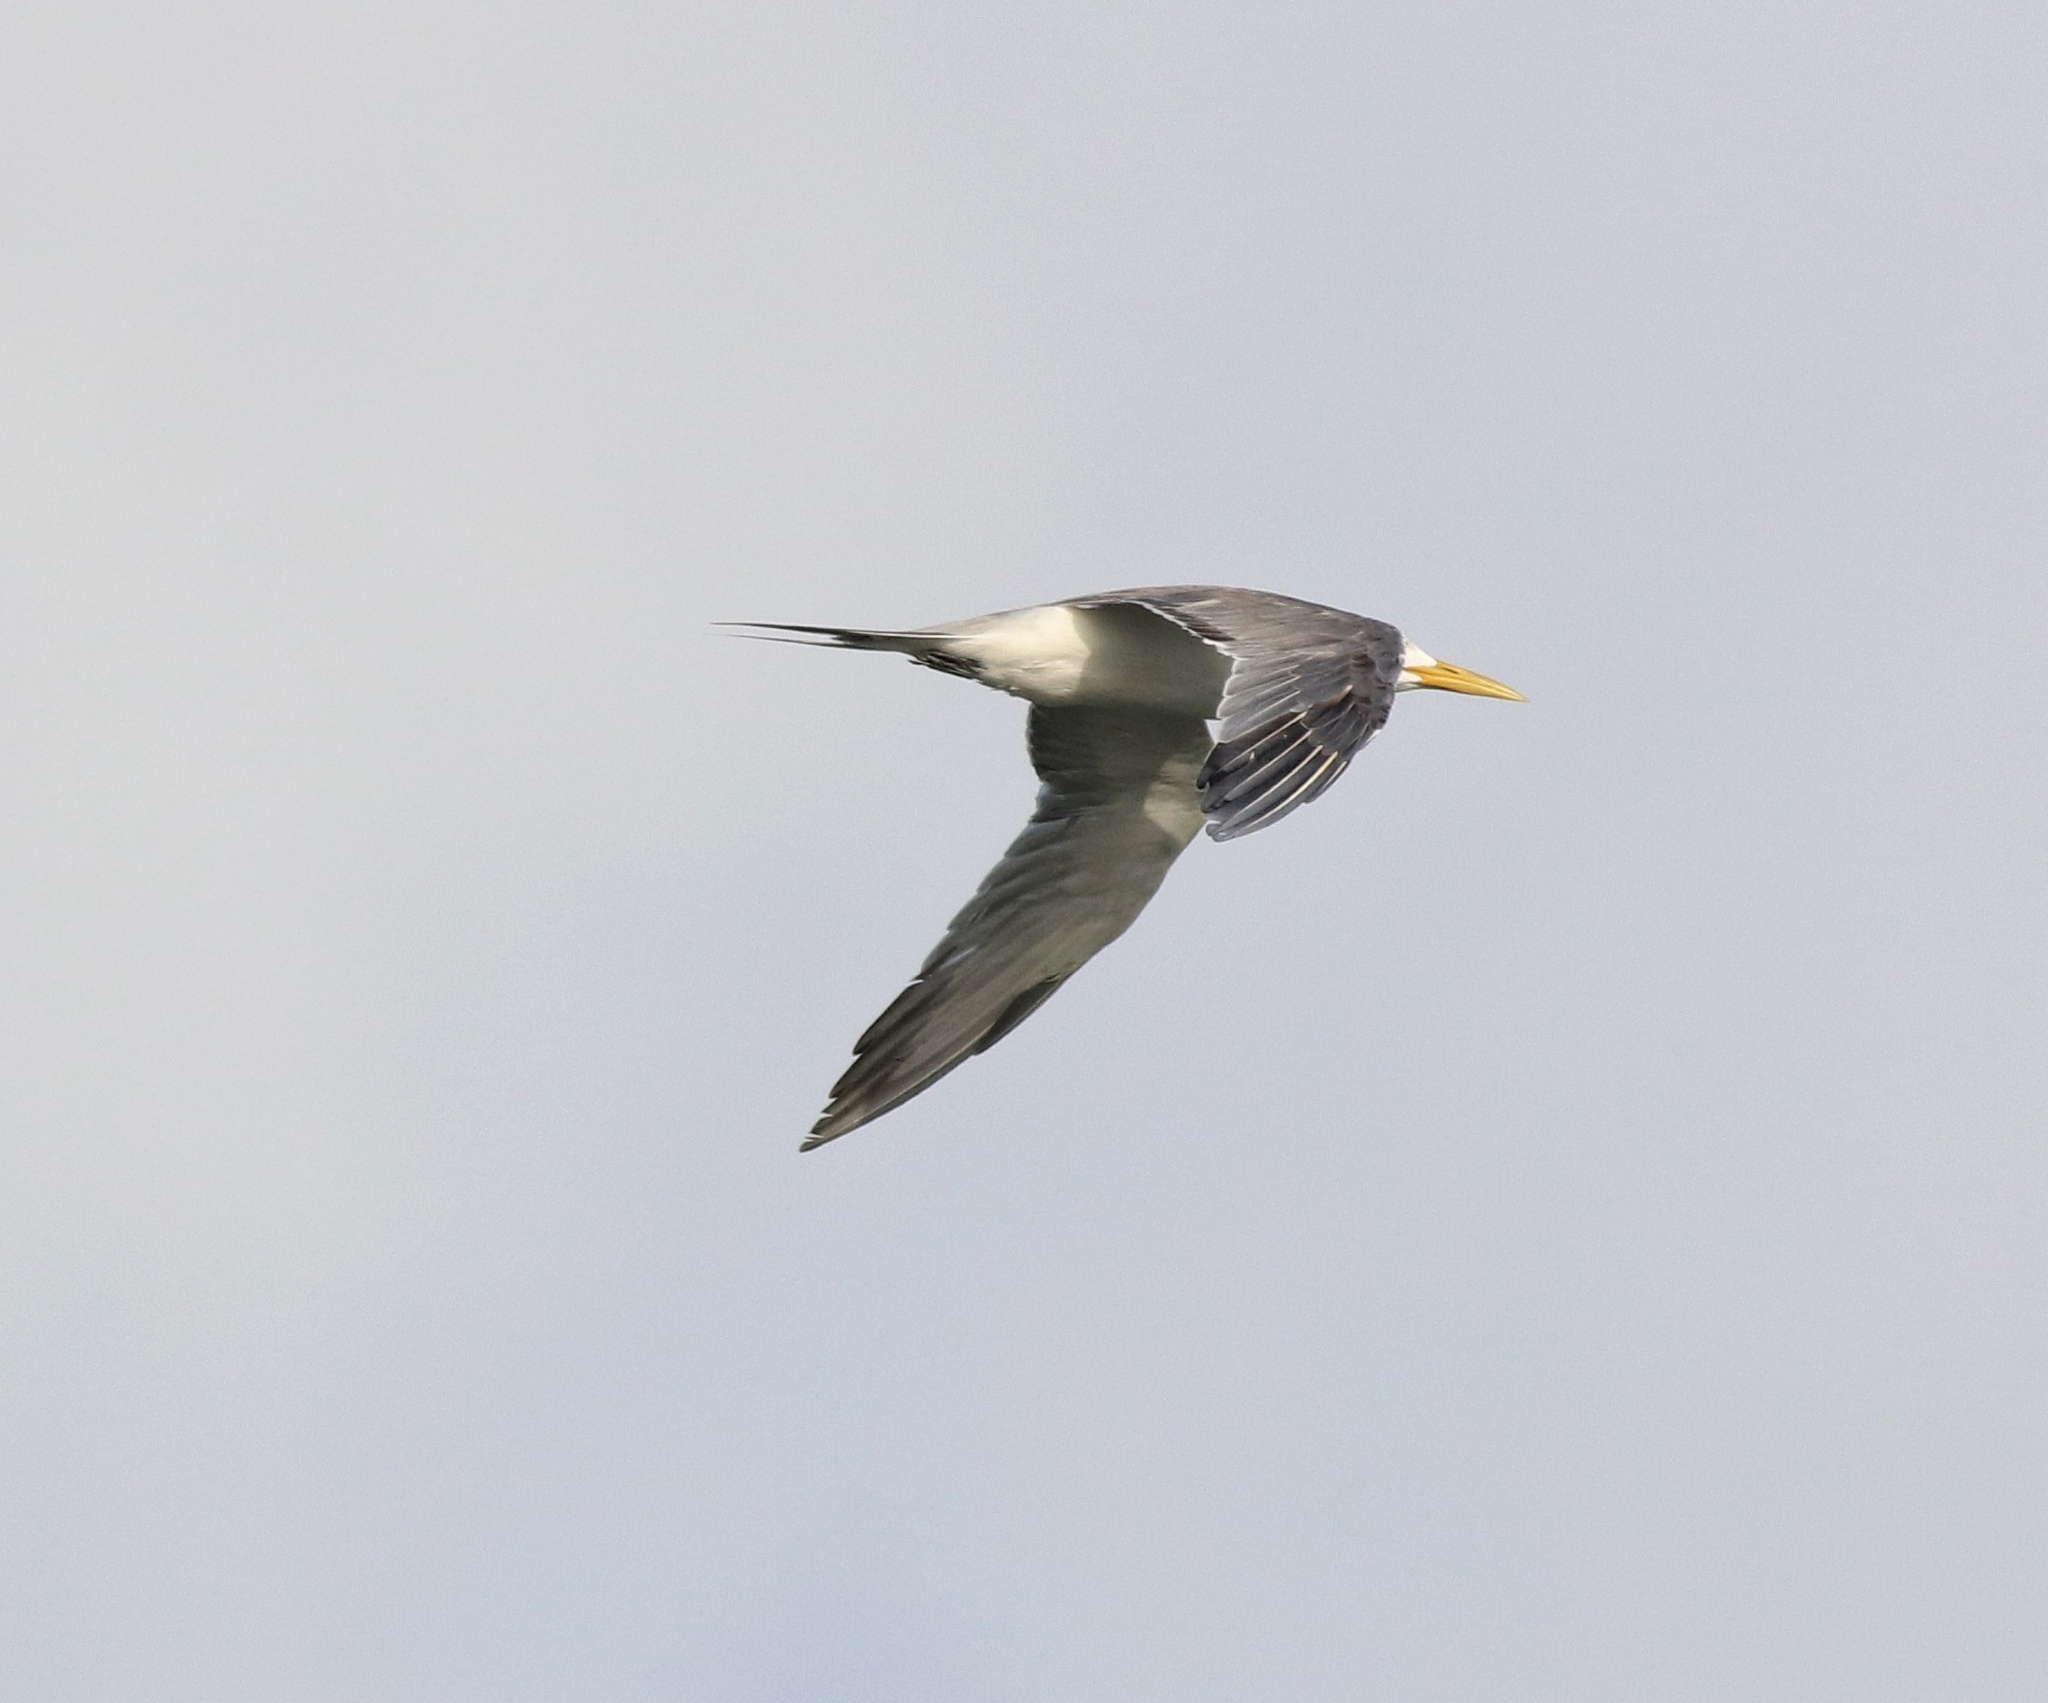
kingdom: Animalia
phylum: Chordata
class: Aves
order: Charadriiformes
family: Laridae
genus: Thalasseus
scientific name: Thalasseus bergii
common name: Greater crested tern
